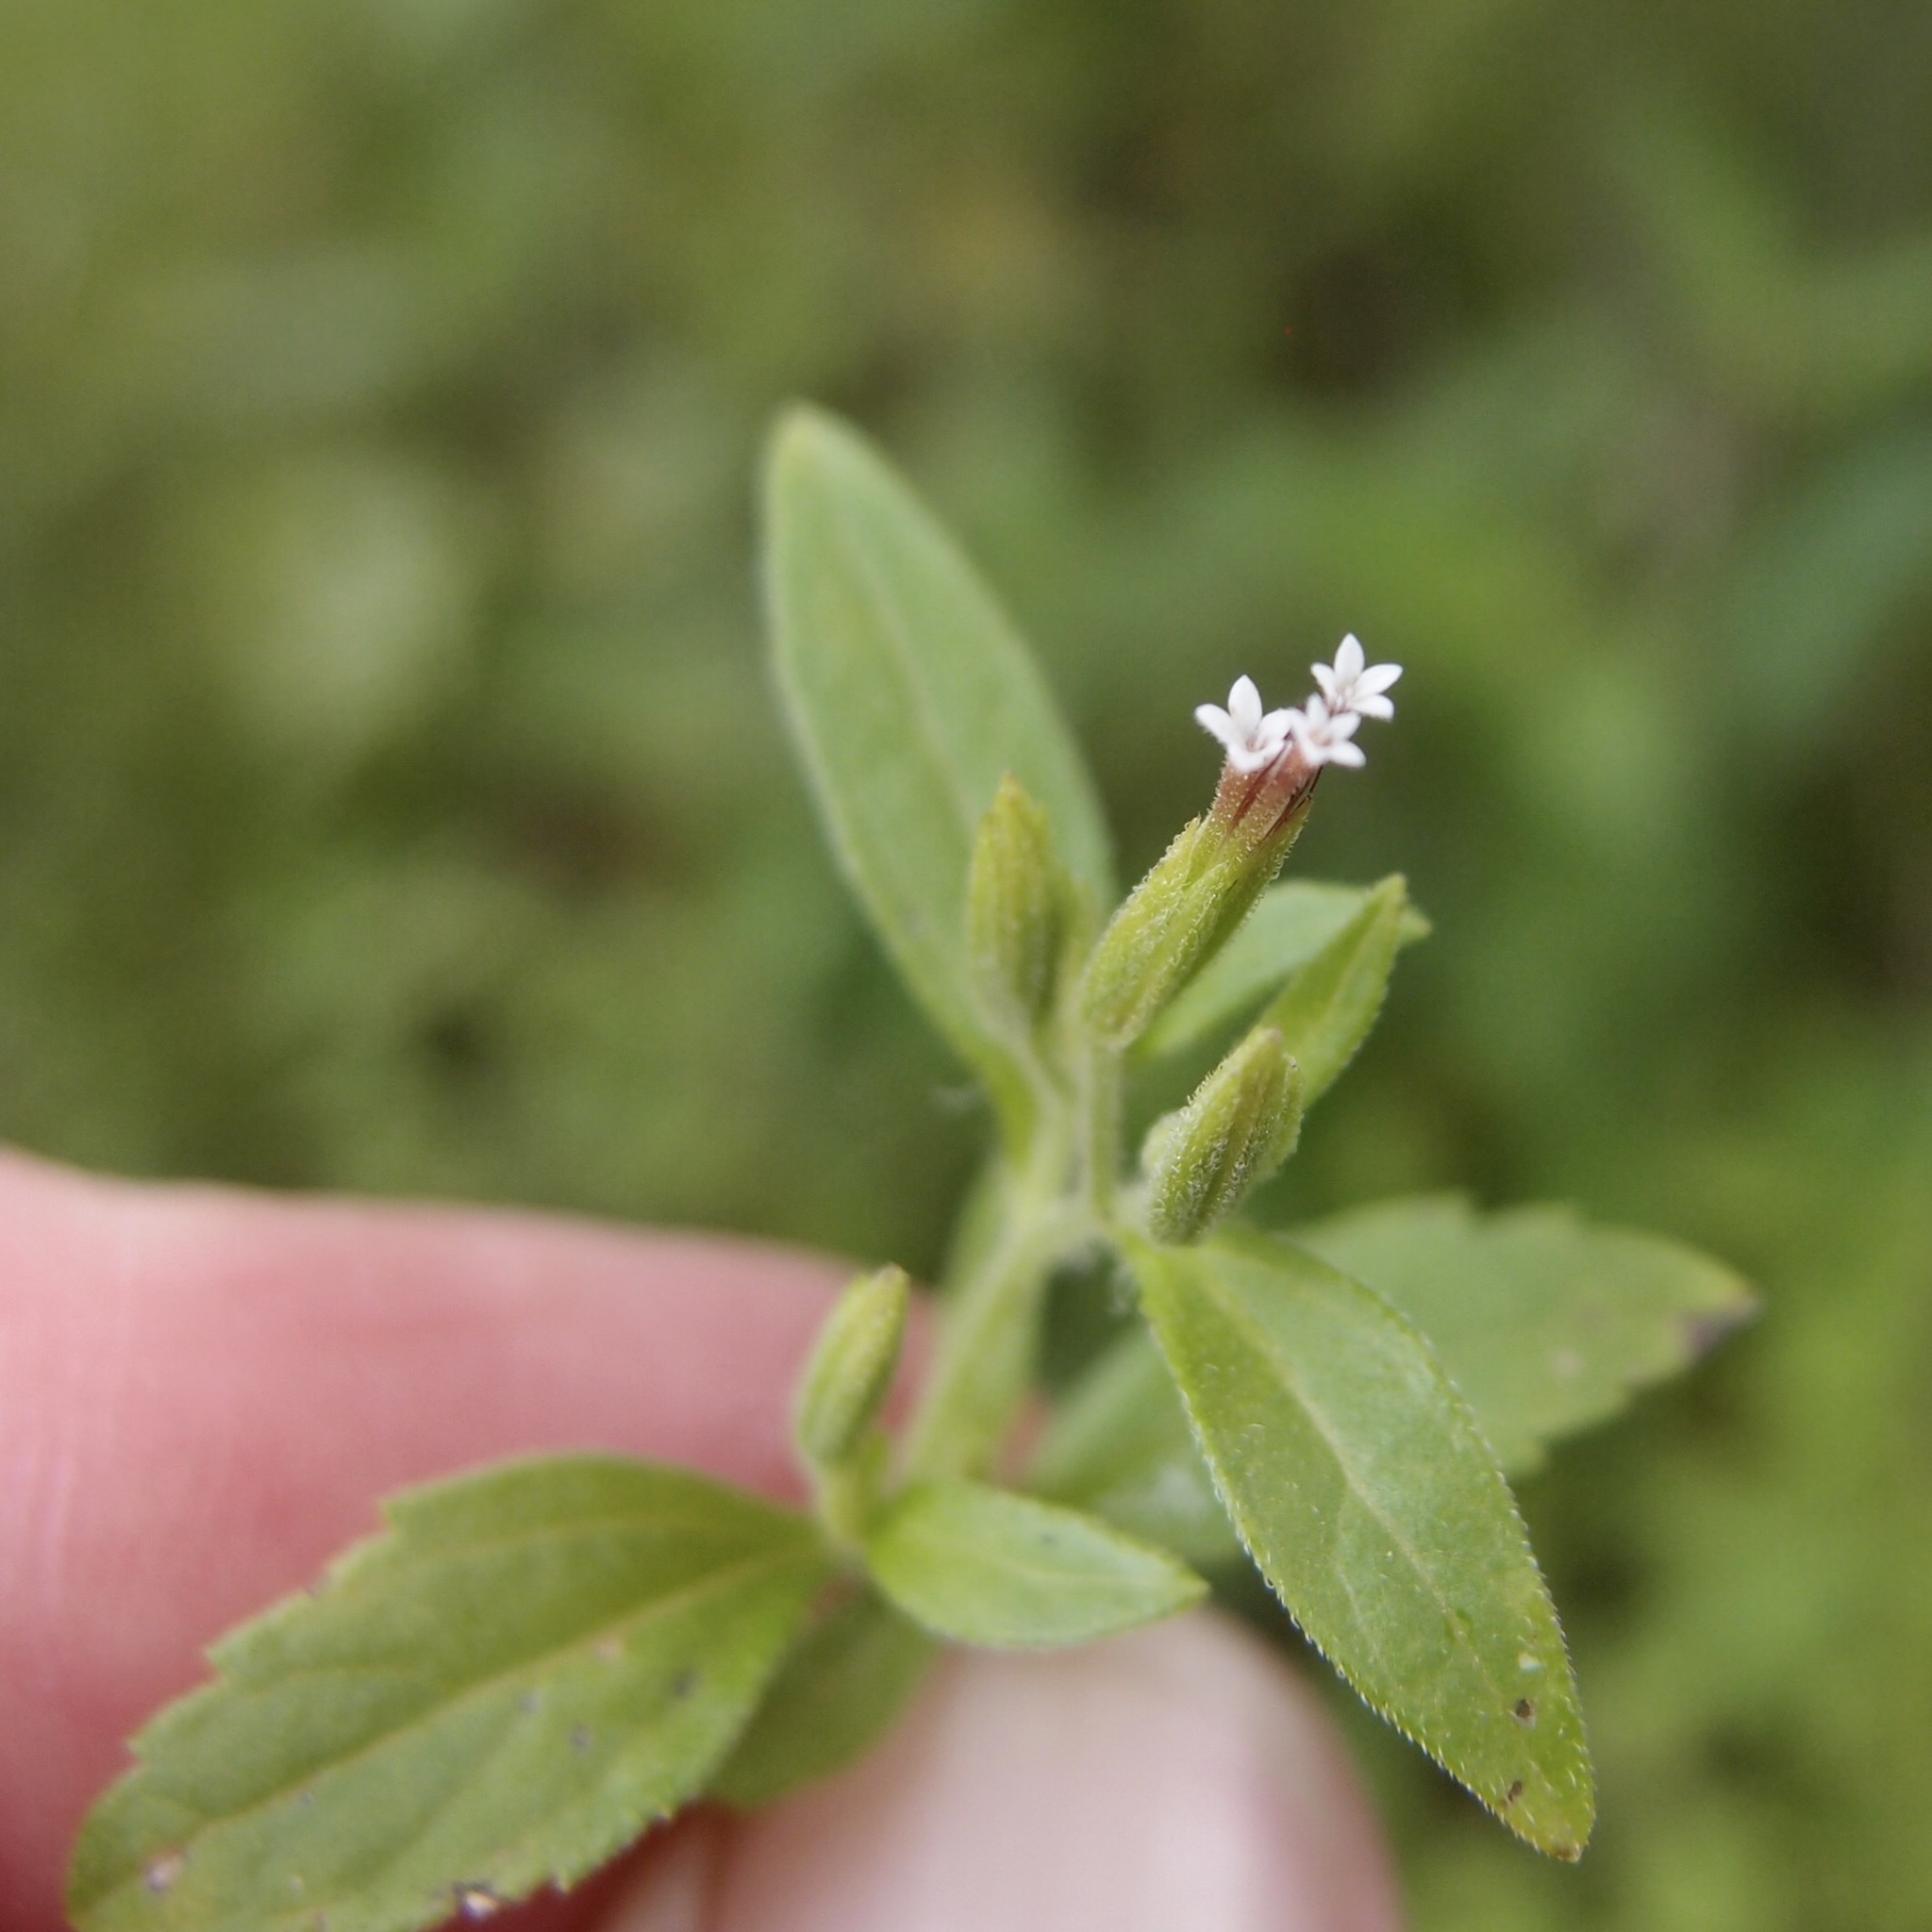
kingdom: Plantae
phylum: Tracheophyta
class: Magnoliopsida
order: Asterales
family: Asteraceae
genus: Stevia
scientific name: Stevia micrantha
